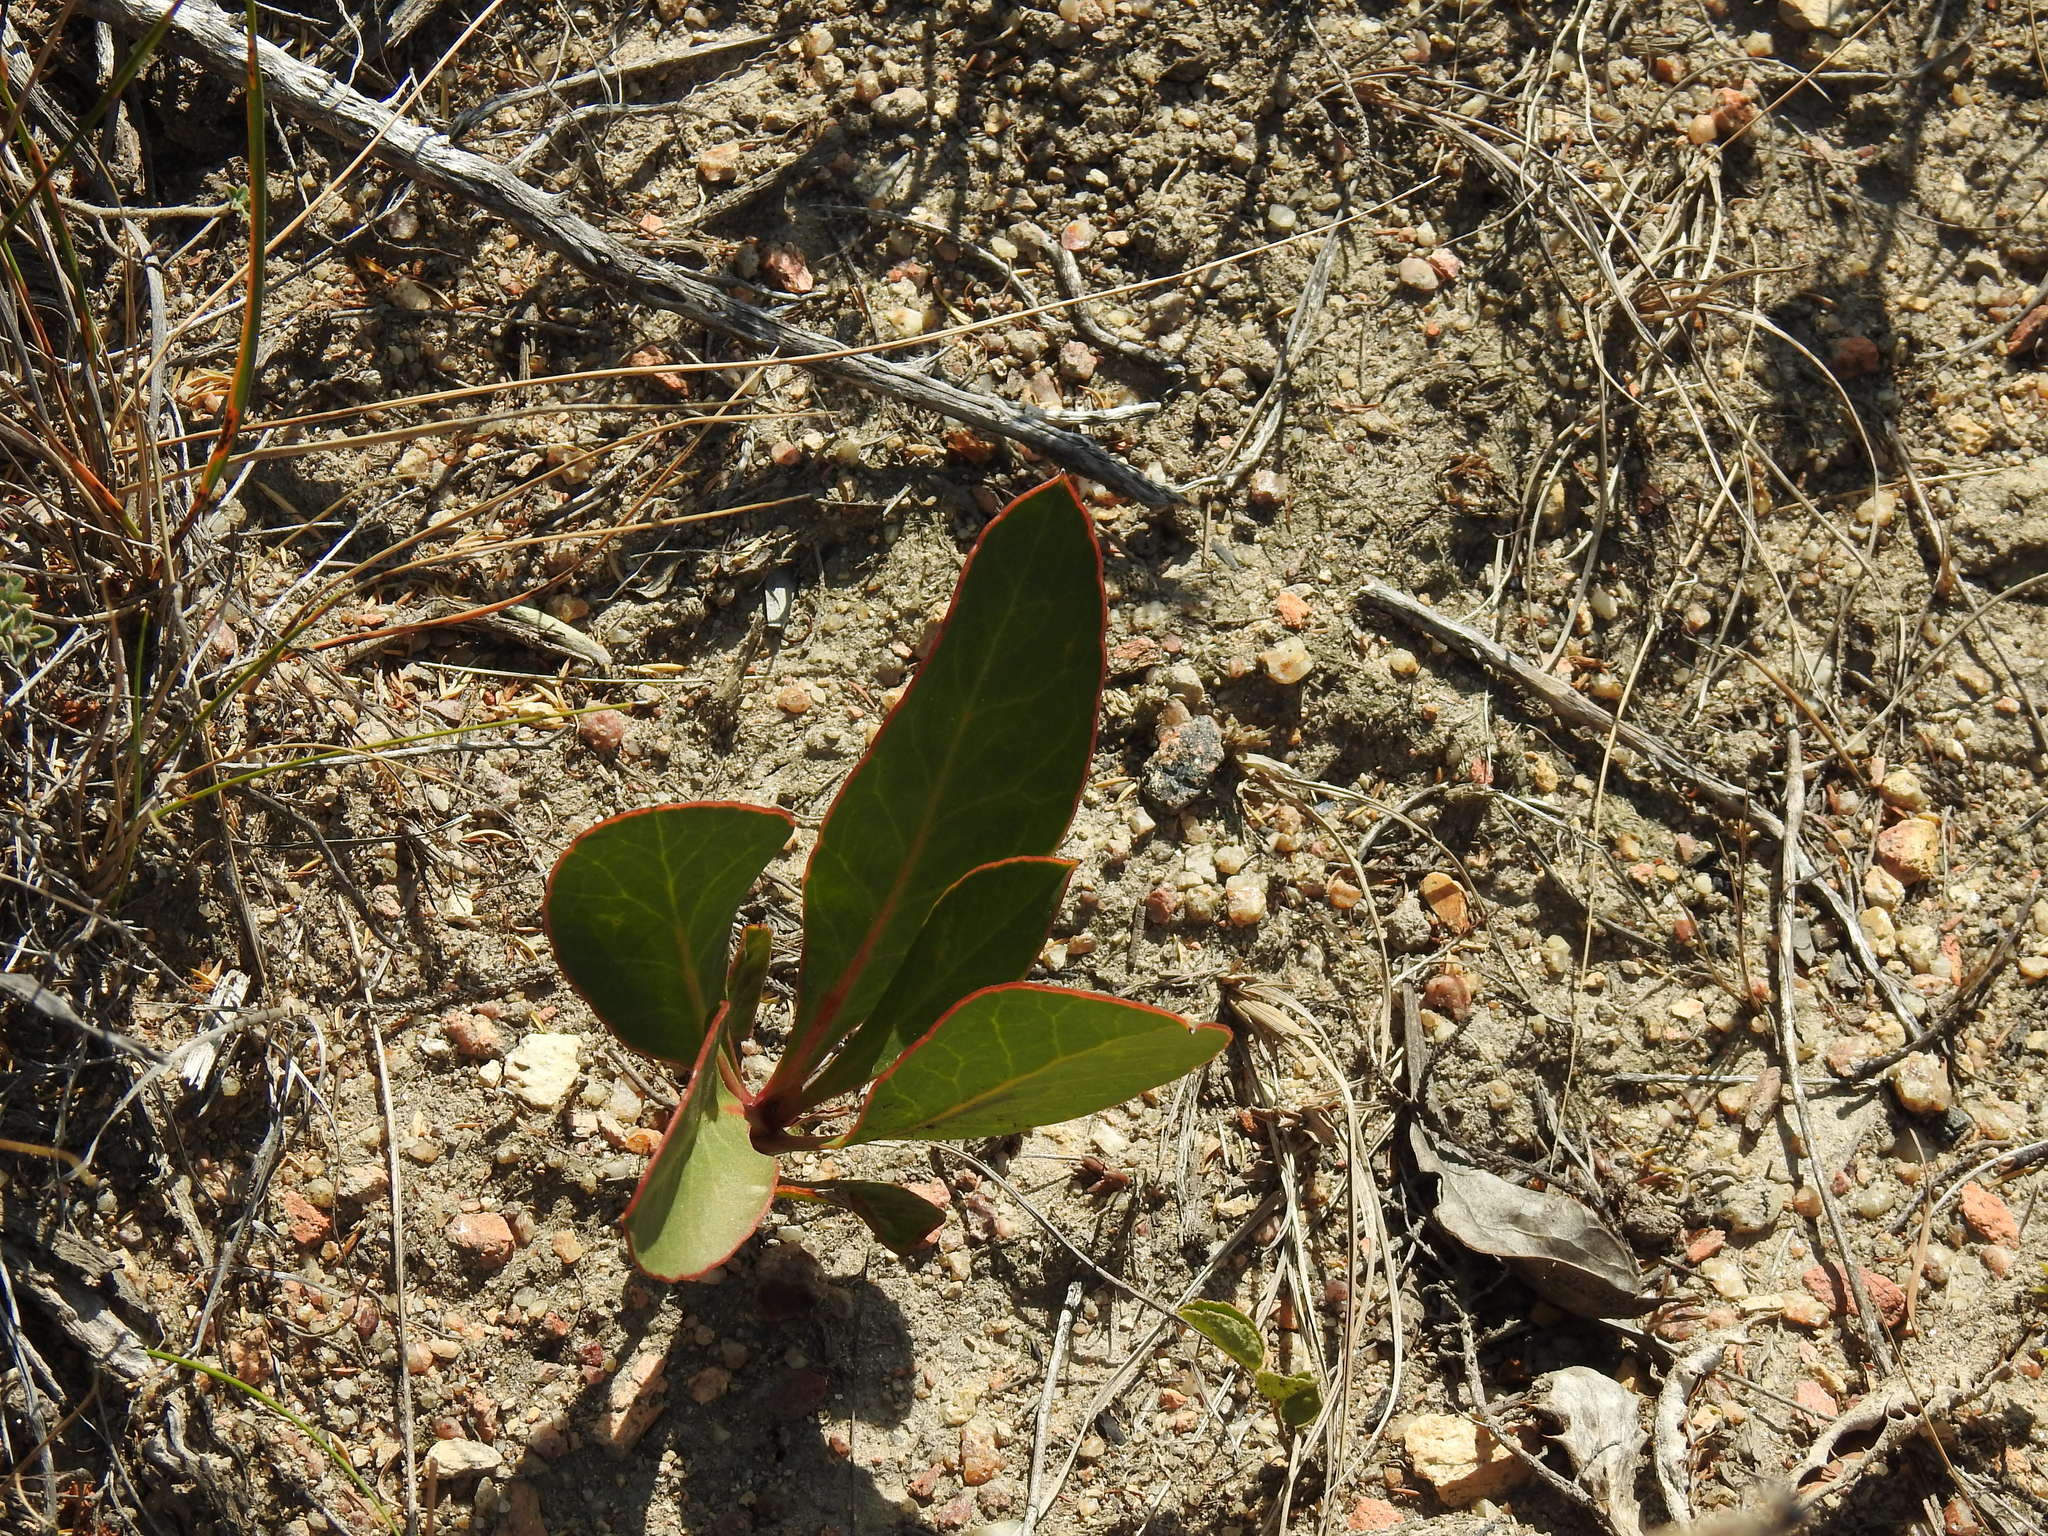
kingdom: Plantae
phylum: Tracheophyta
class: Magnoliopsida
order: Proteales
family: Proteaceae
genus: Protea
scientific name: Protea acaulos
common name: Common ground sugarbush
